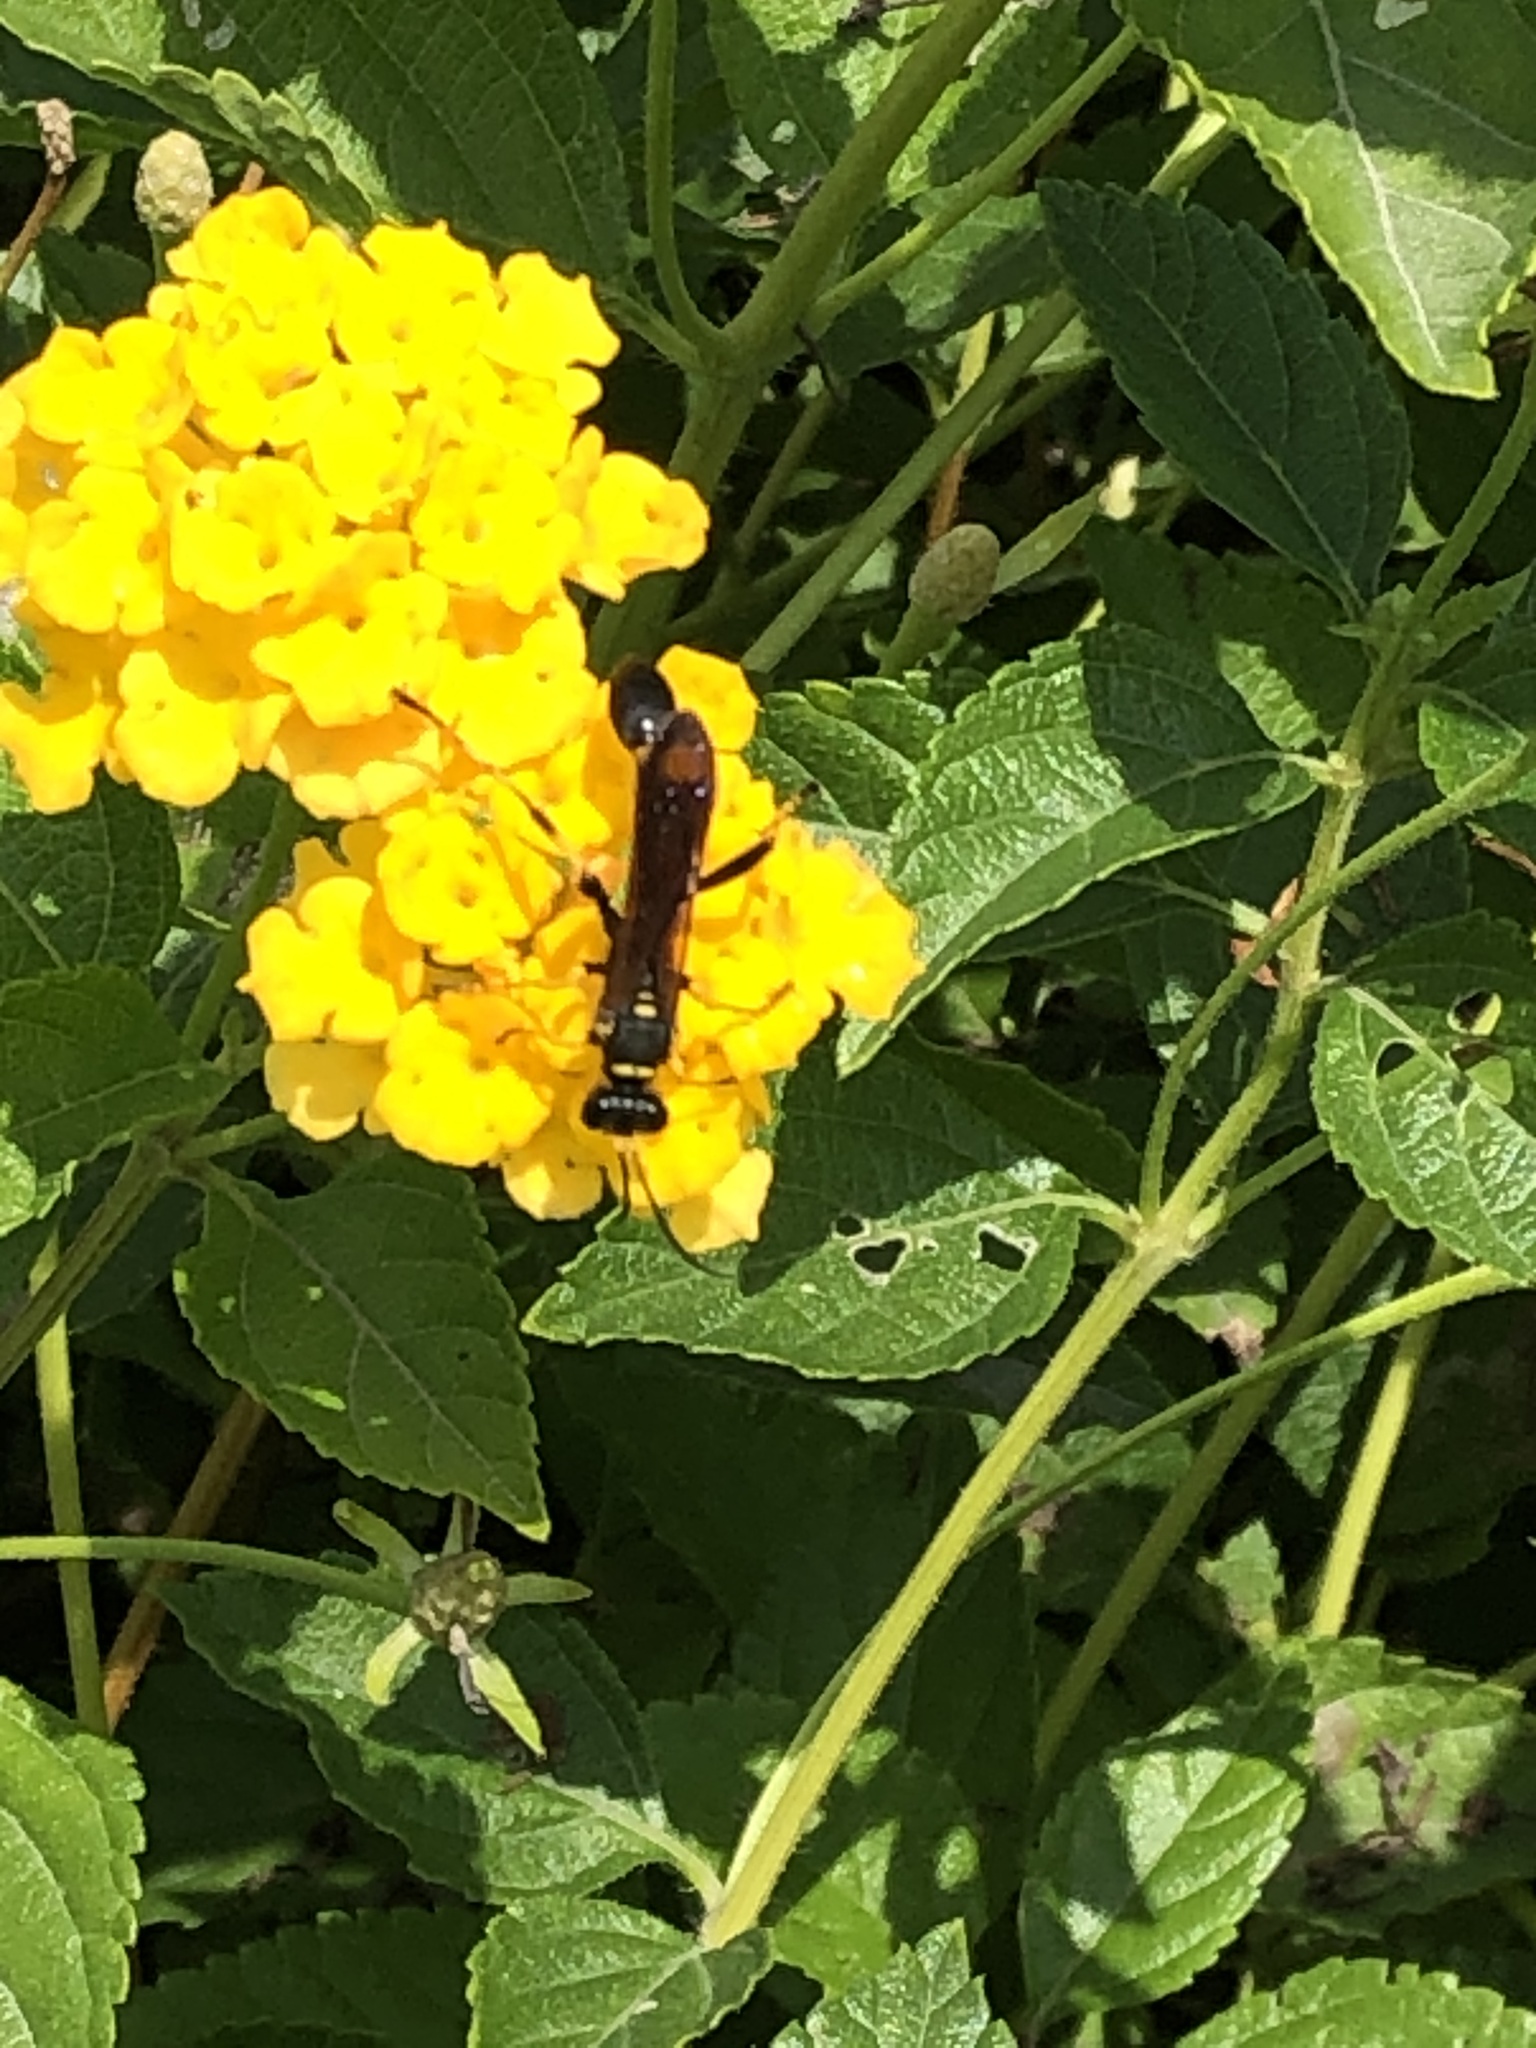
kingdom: Animalia
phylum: Arthropoda
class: Insecta
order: Hymenoptera
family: Sphecidae
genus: Sceliphron
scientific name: Sceliphron caementarium
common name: Mud dauber
